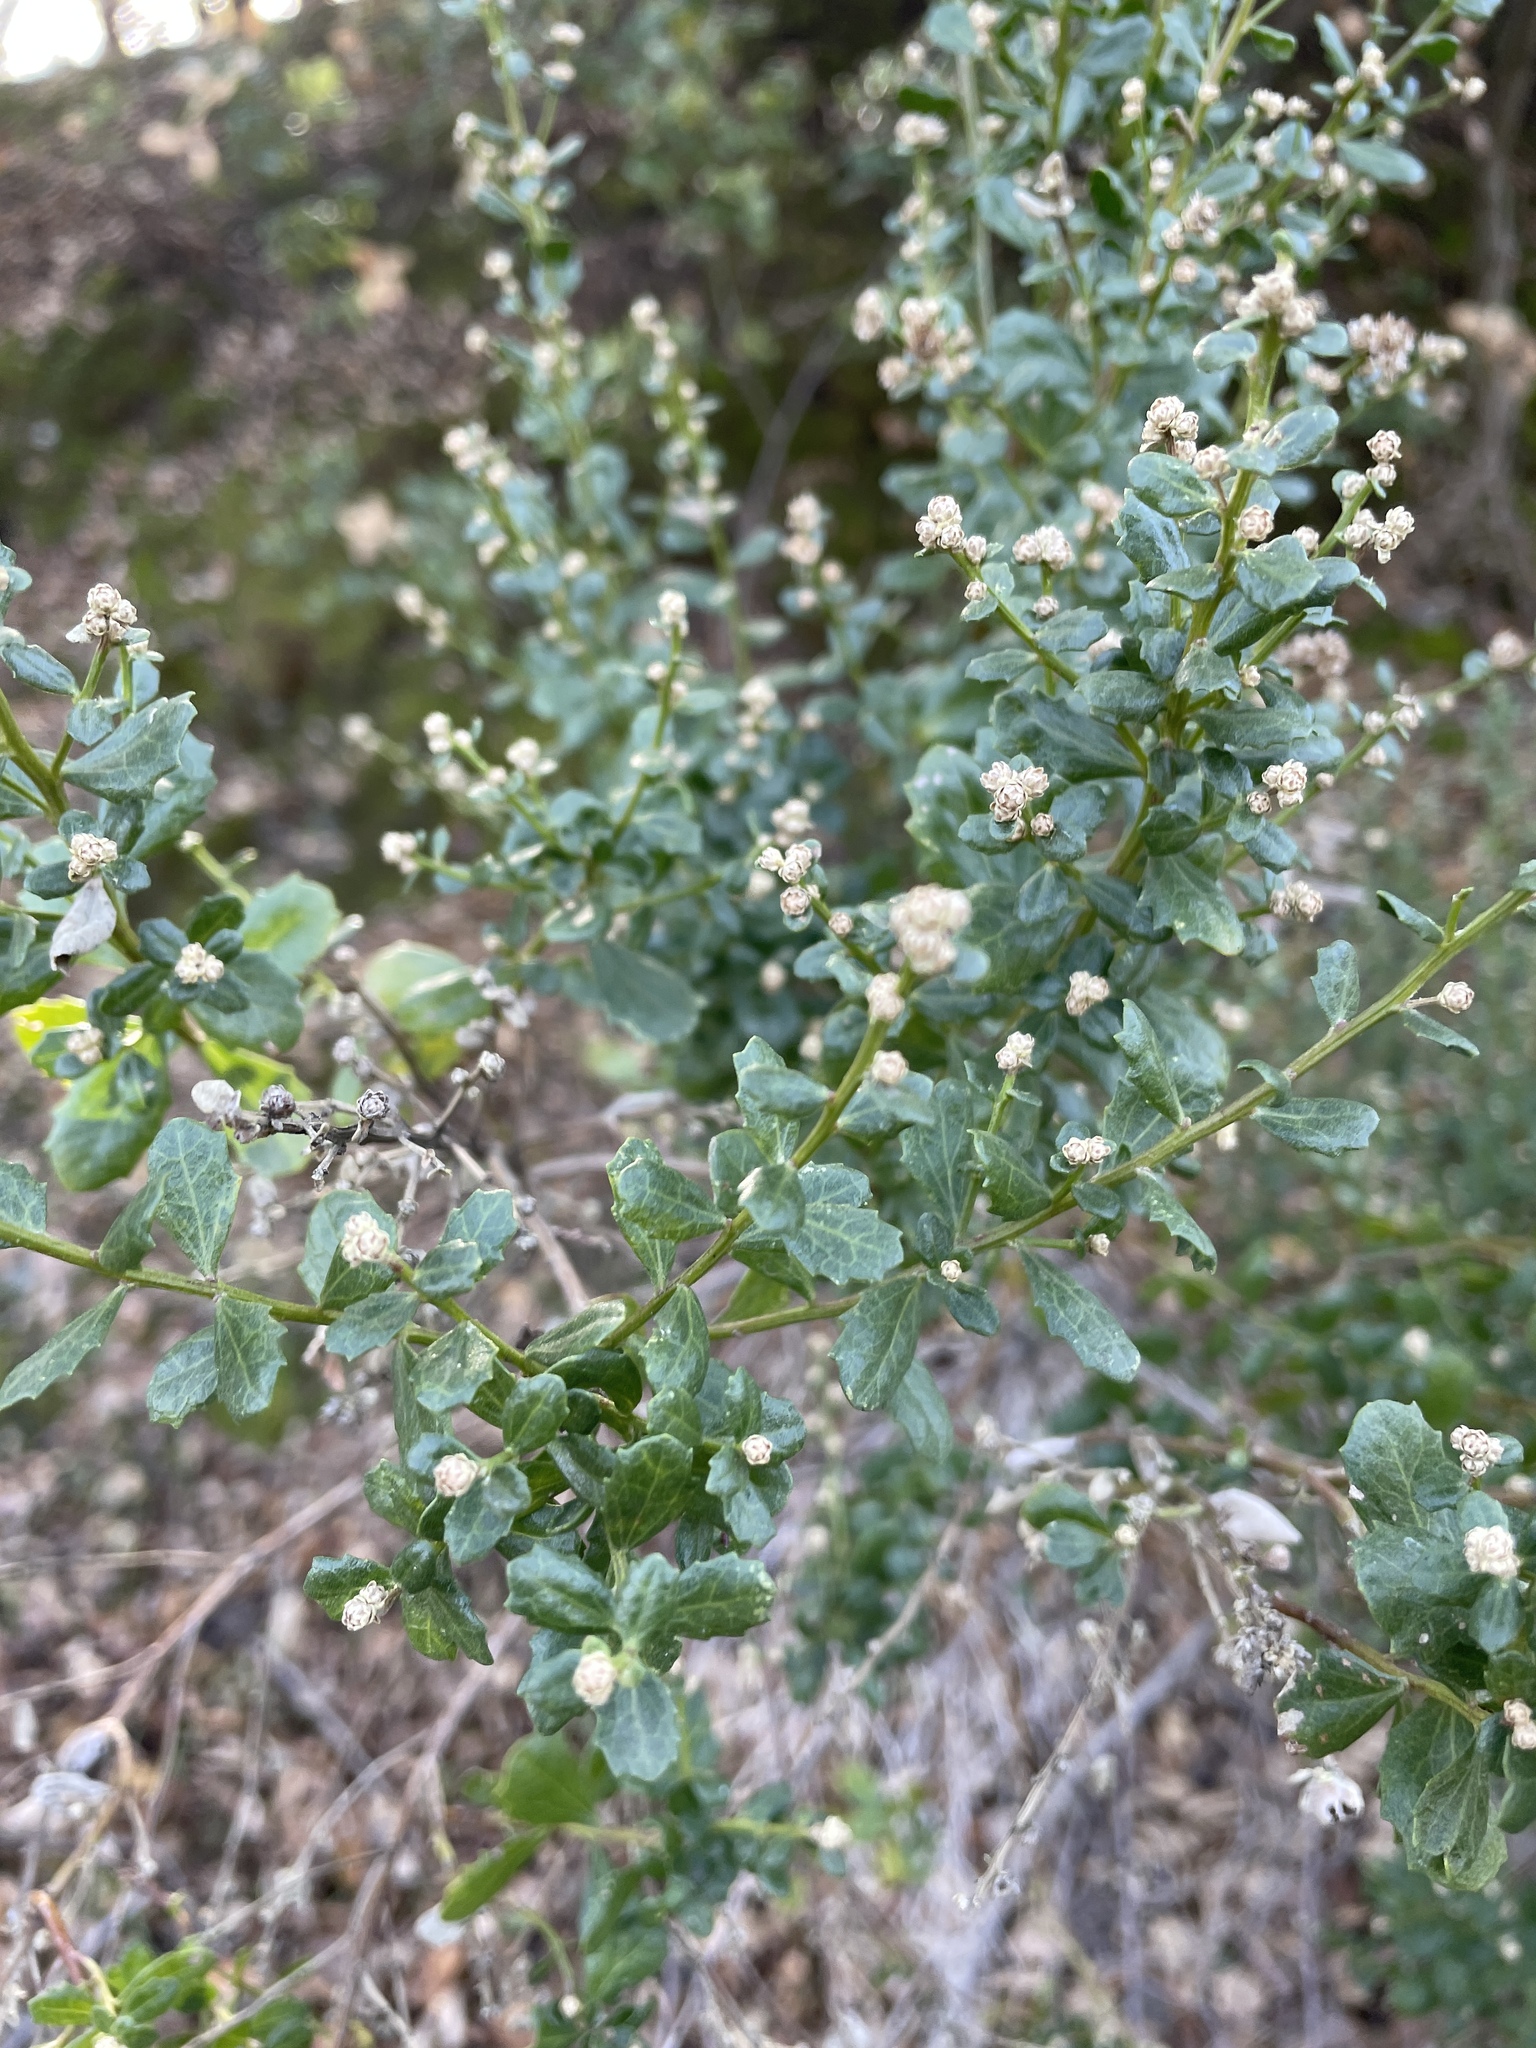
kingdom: Plantae
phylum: Tracheophyta
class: Magnoliopsida
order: Asterales
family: Asteraceae
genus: Baccharis
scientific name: Baccharis pilularis
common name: Coyotebrush
